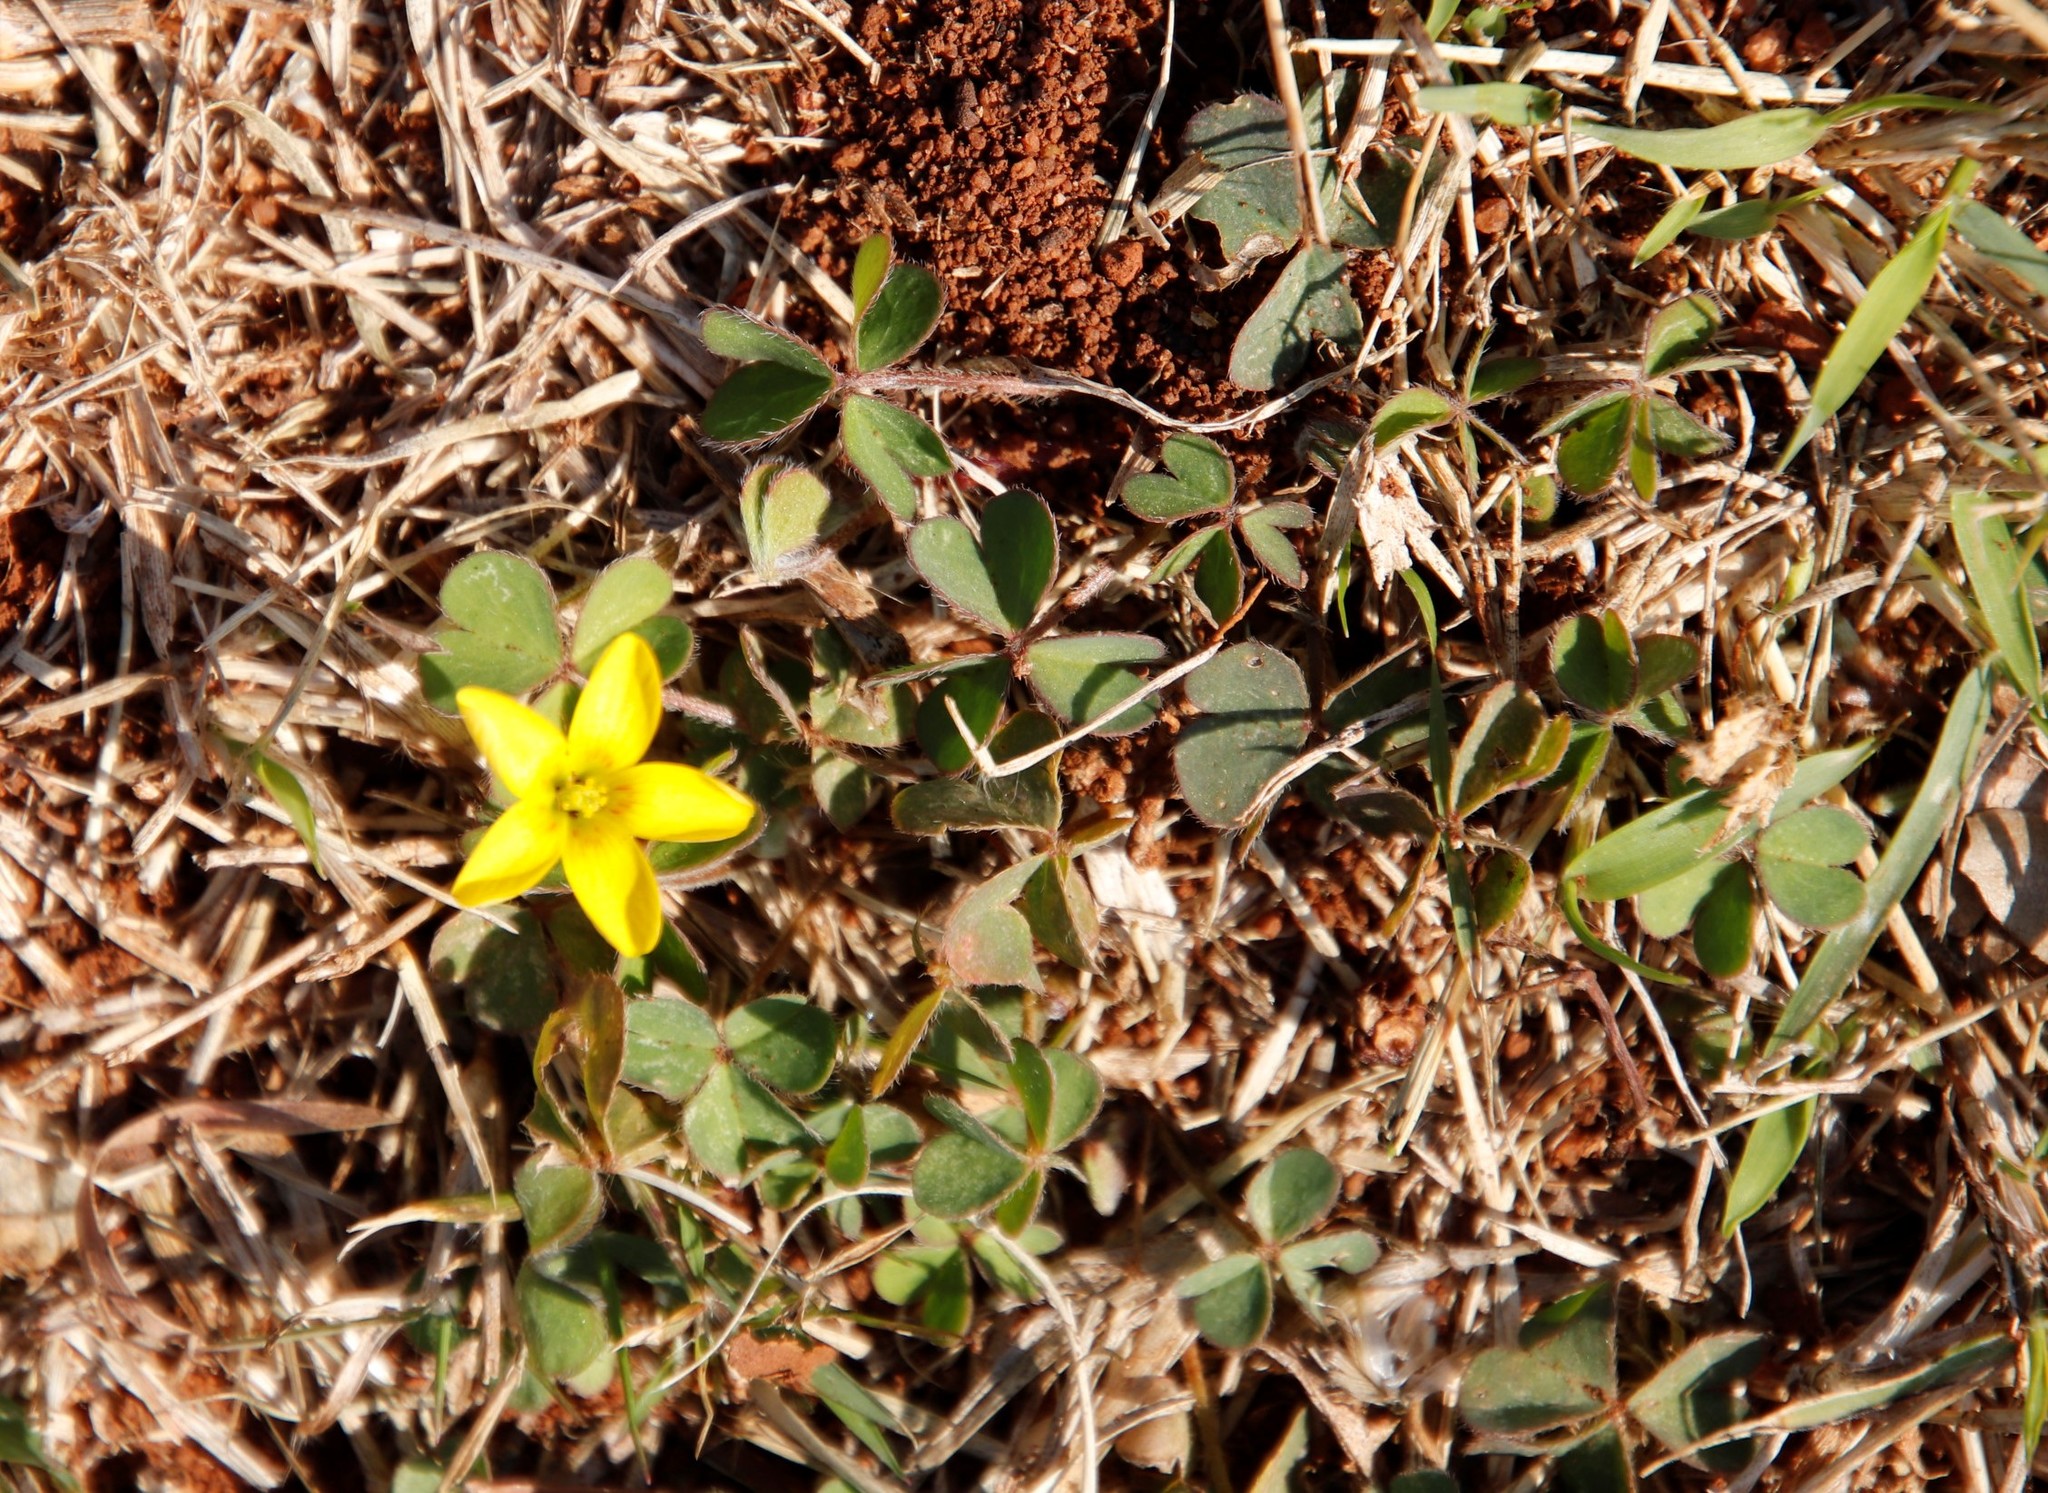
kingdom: Plantae
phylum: Tracheophyta
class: Magnoliopsida
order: Oxalidales
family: Oxalidaceae
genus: Oxalis
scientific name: Oxalis corniculata
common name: Procumbent yellow-sorrel
